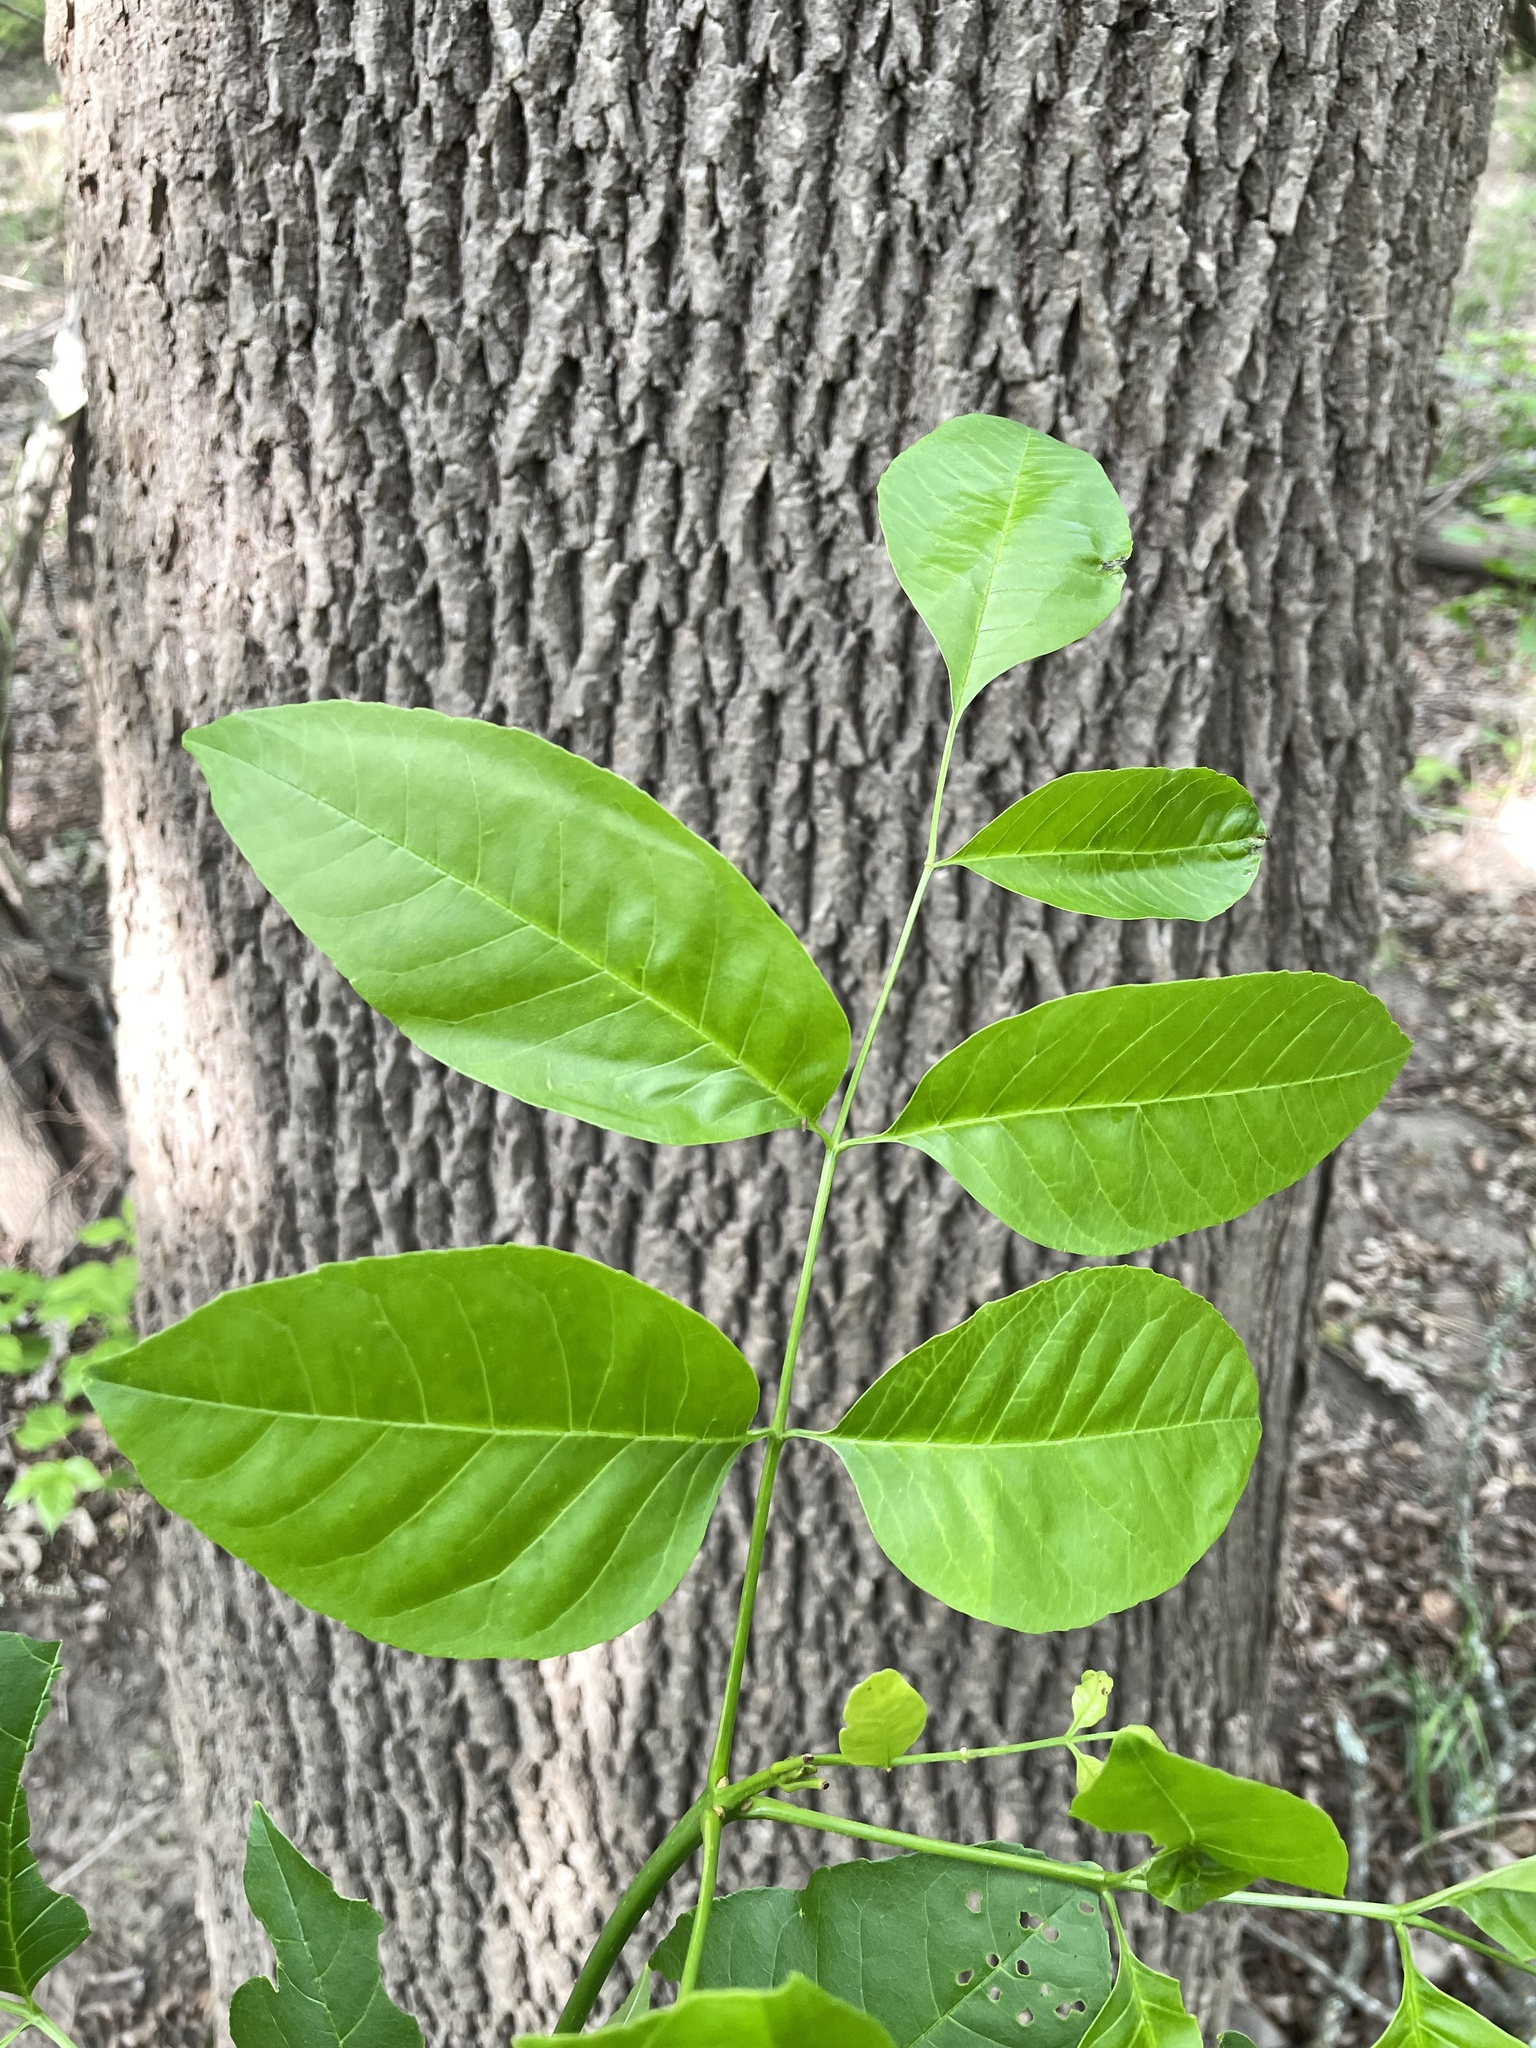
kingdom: Plantae
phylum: Tracheophyta
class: Magnoliopsida
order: Lamiales
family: Oleaceae
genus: Fraxinus
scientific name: Fraxinus pennsylvanica
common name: Green ash
